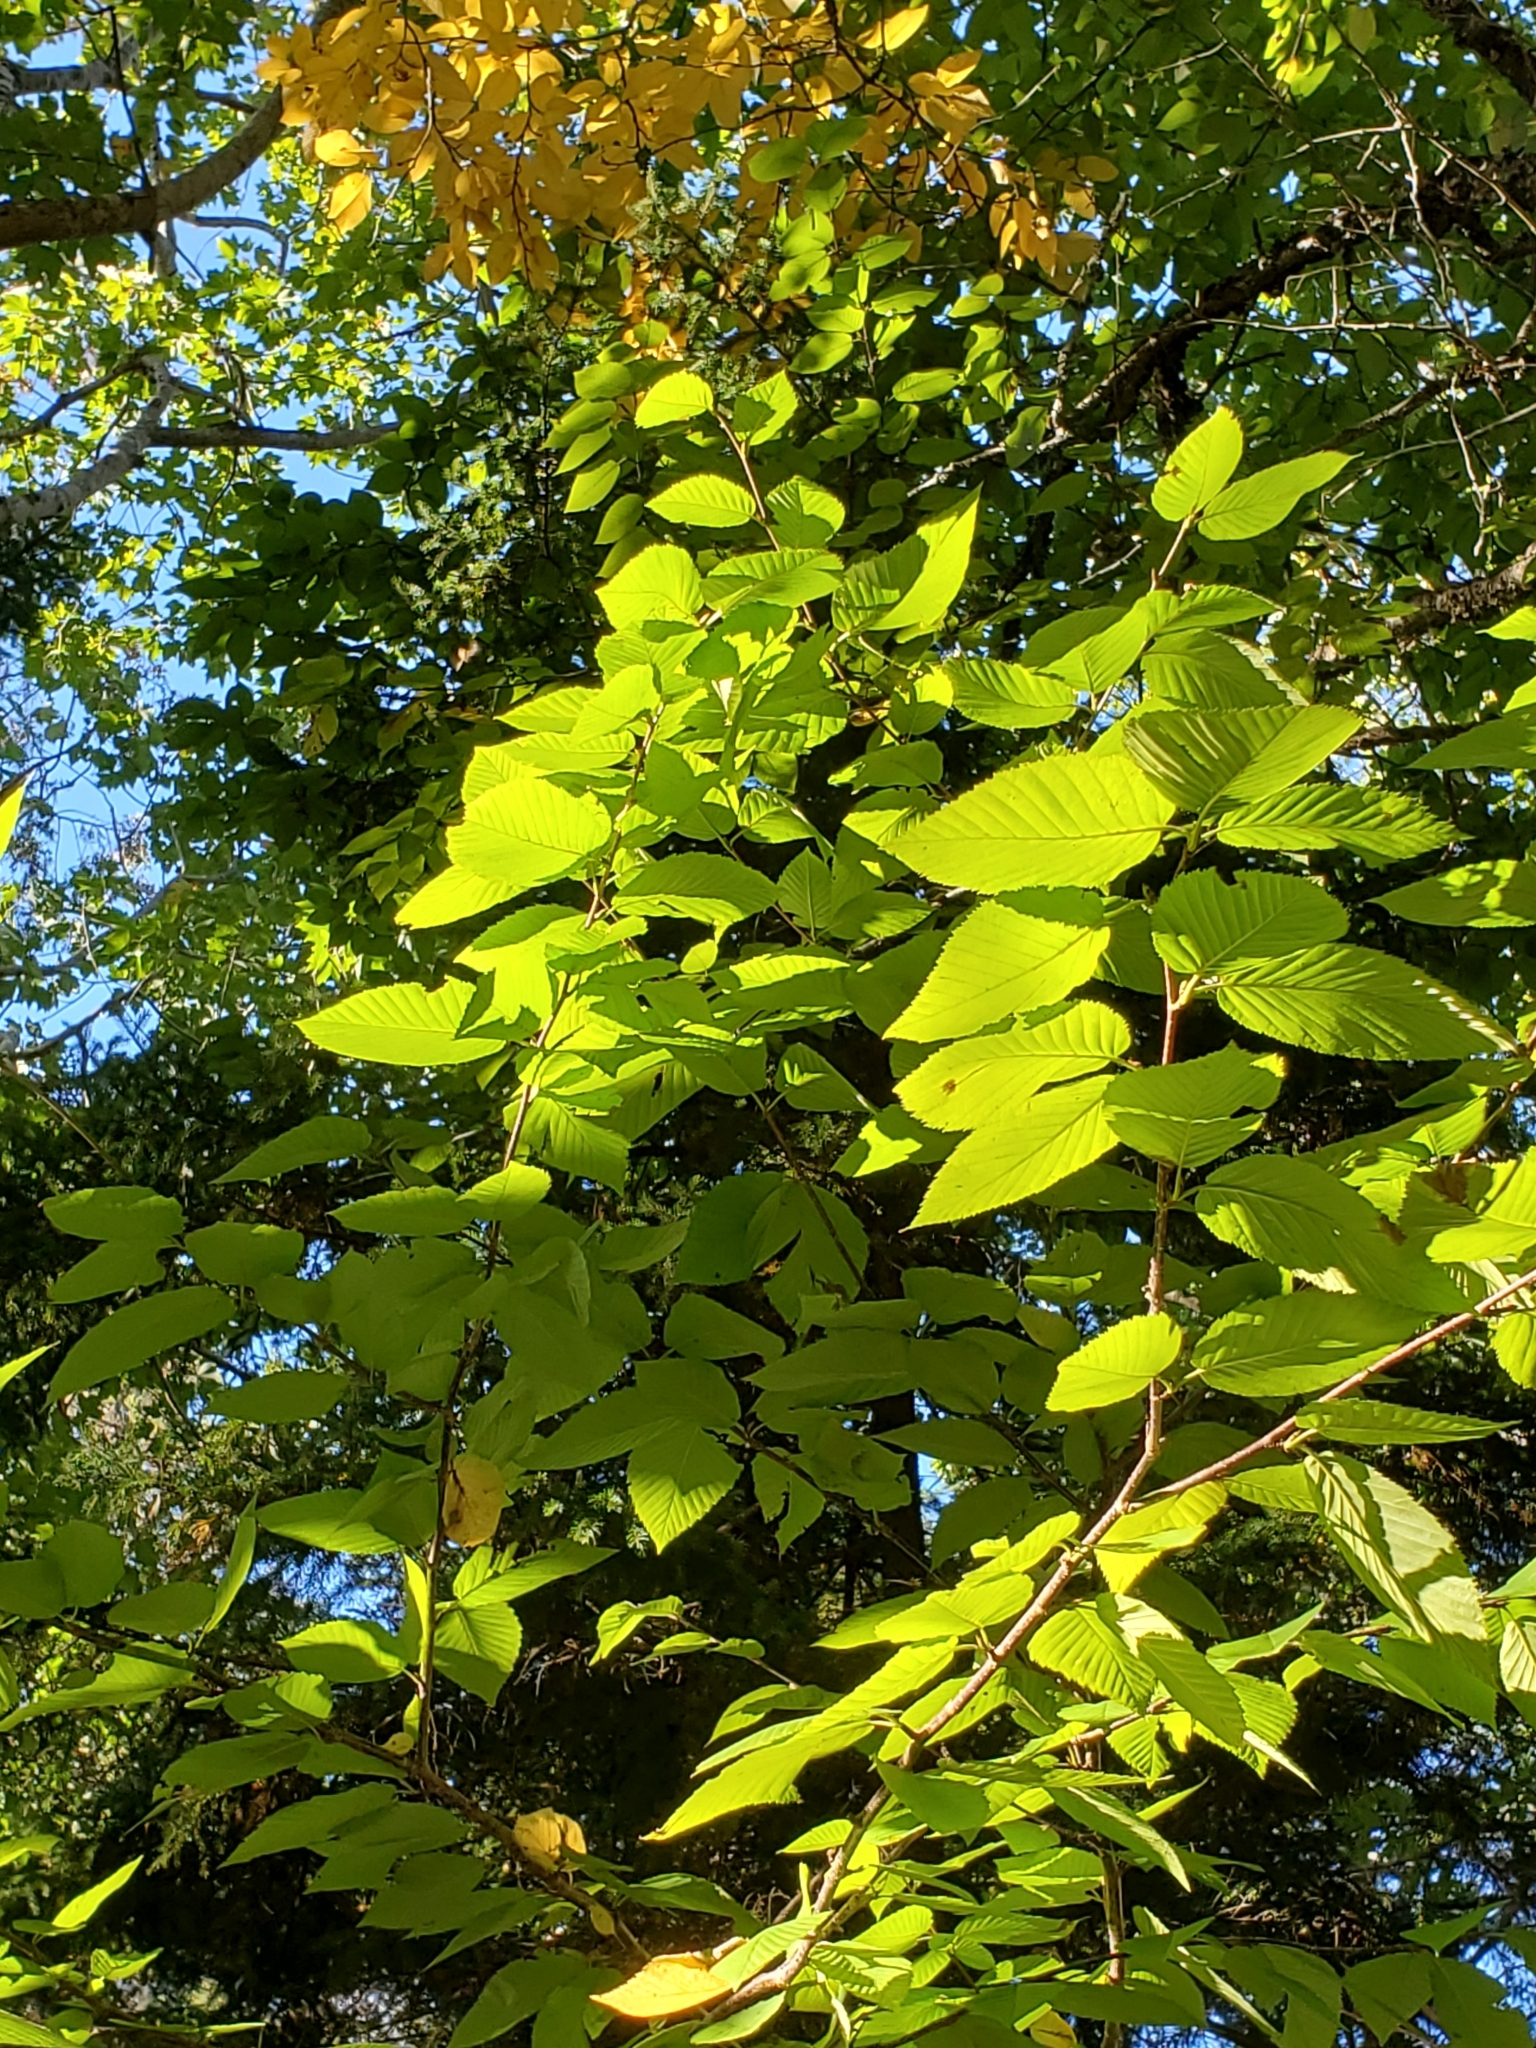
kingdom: Plantae
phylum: Tracheophyta
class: Magnoliopsida
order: Fagales
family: Betulaceae
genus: Betula
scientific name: Betula alleghaniensis
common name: Yellow birch
